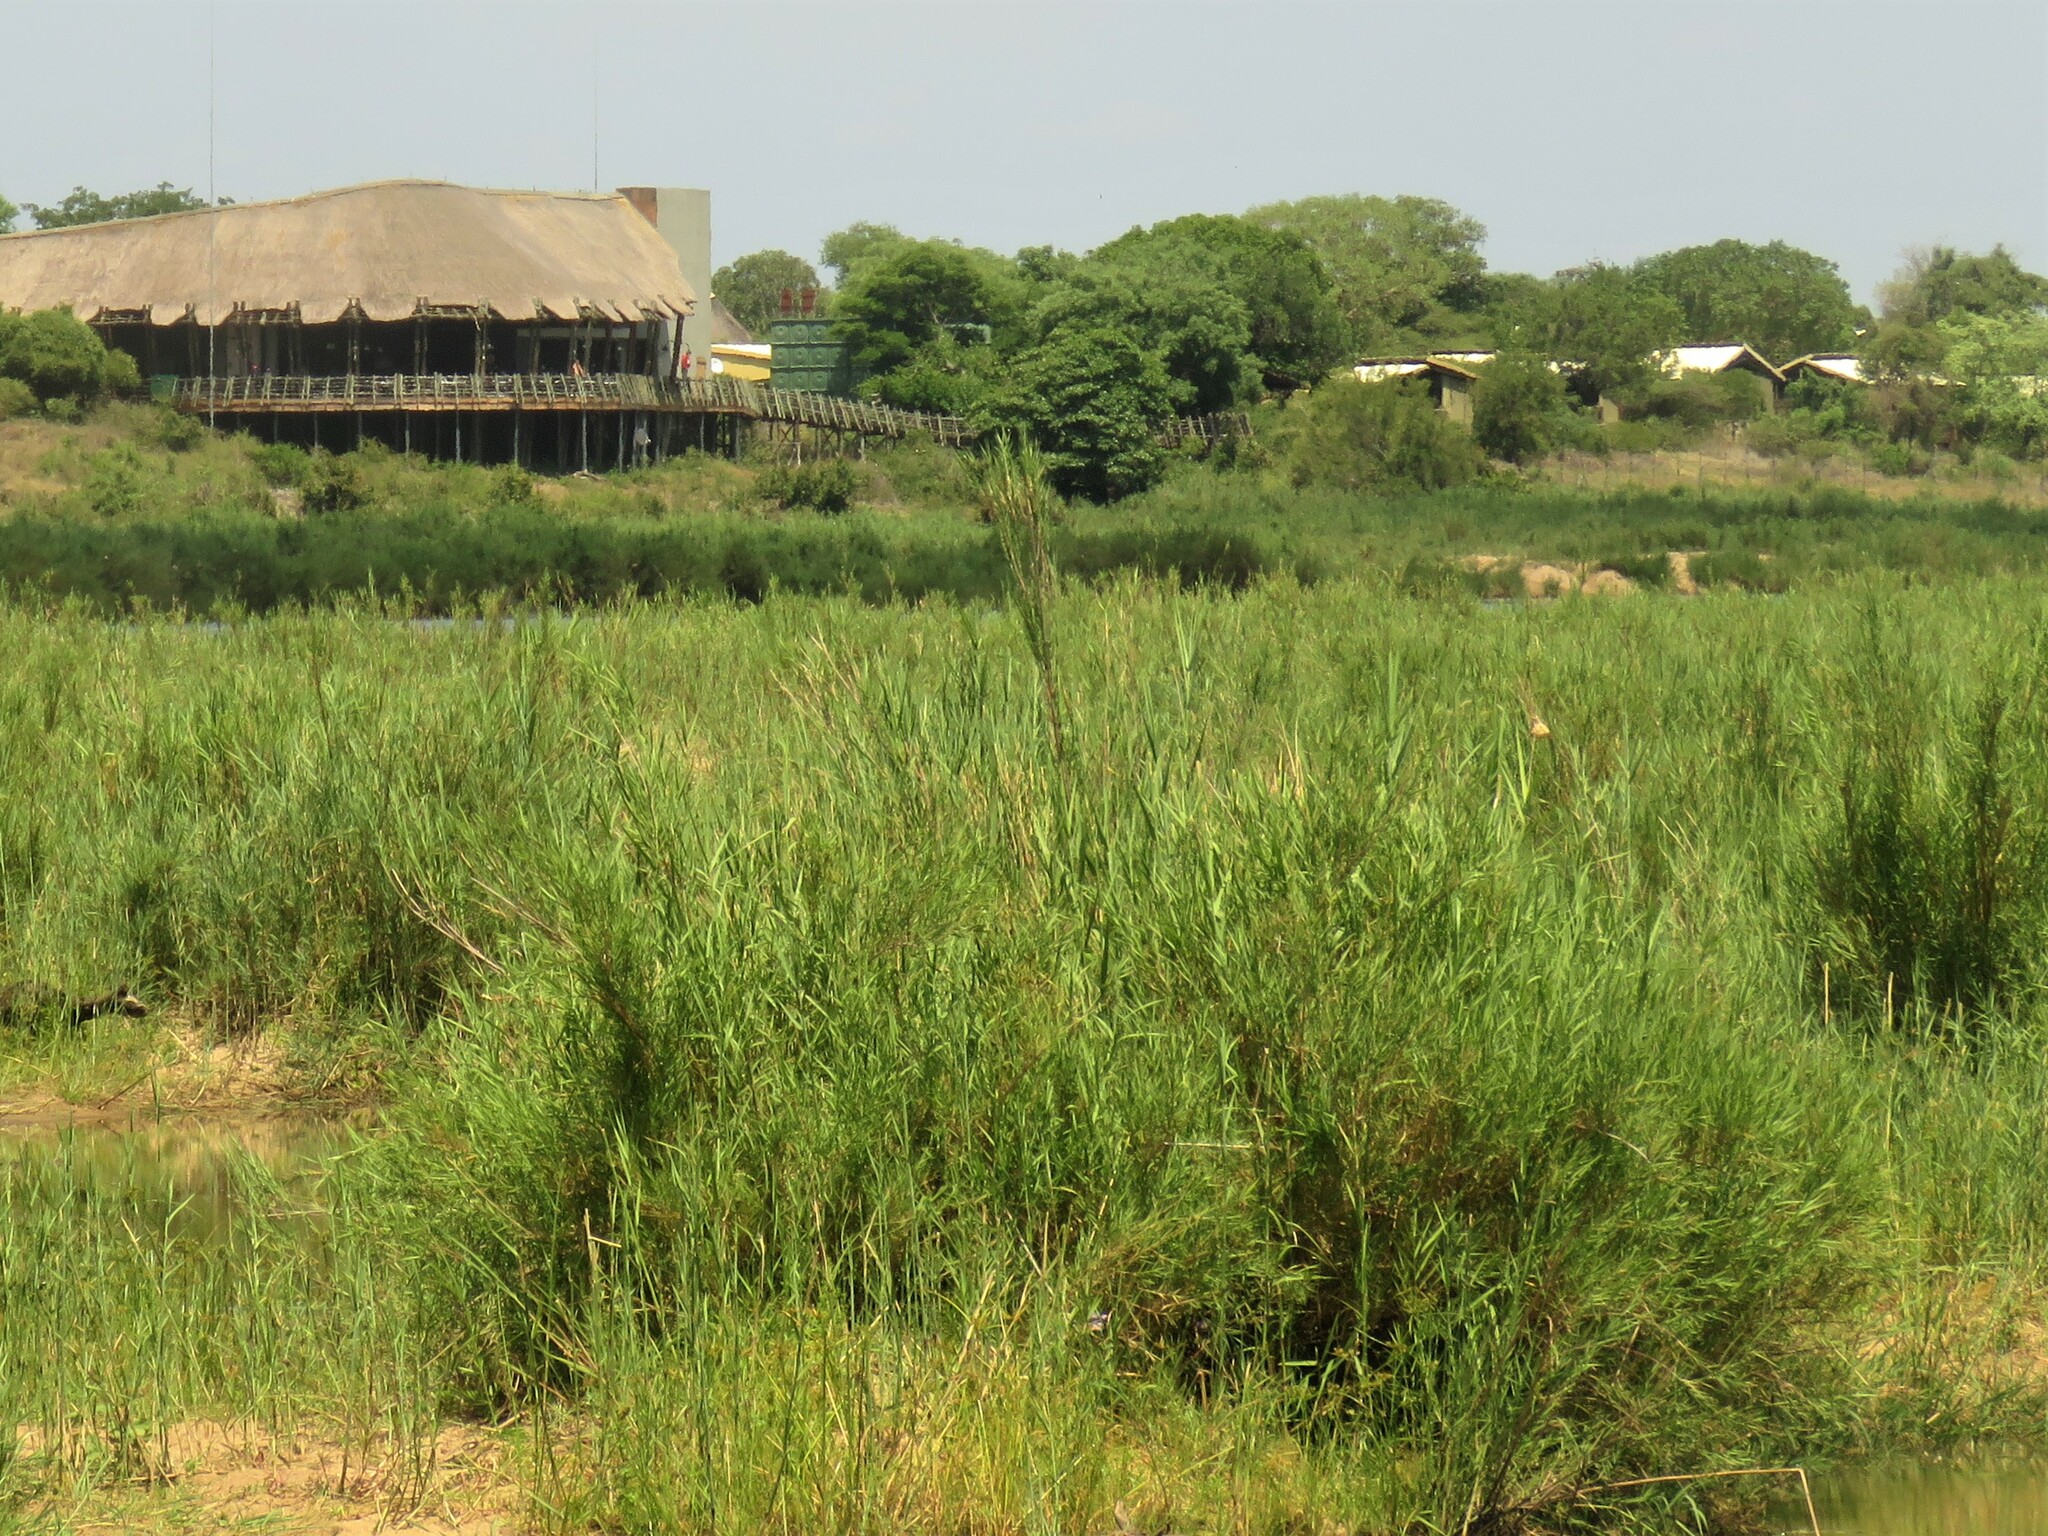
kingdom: Plantae
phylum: Tracheophyta
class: Liliopsida
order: Poales
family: Poaceae
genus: Phragmites
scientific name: Phragmites mauritianus
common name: Reed grass
